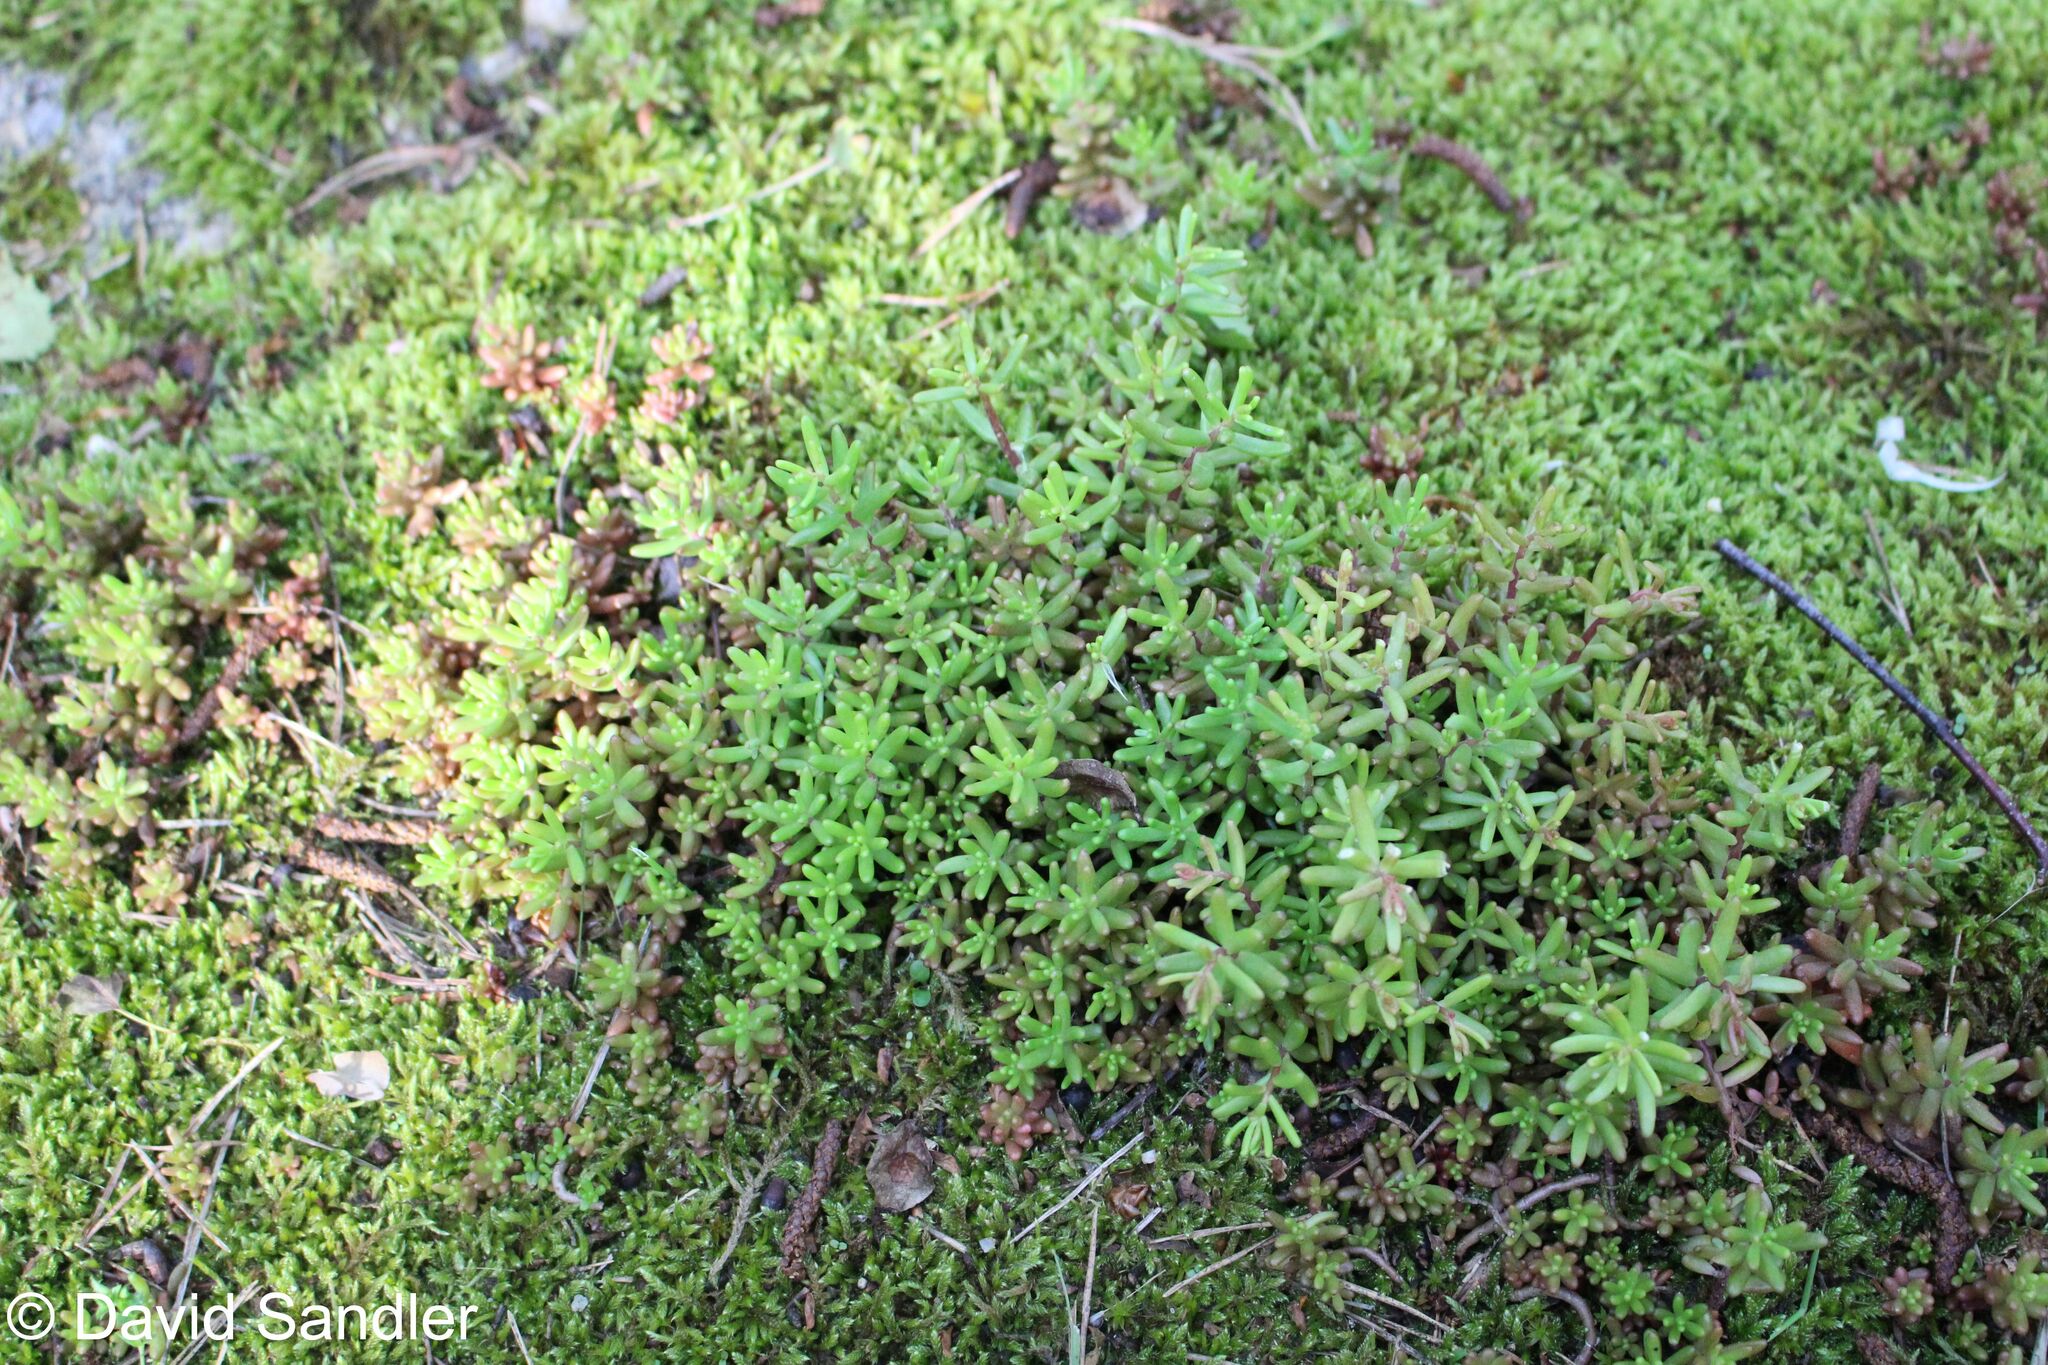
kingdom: Plantae
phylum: Tracheophyta
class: Magnoliopsida
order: Saxifragales
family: Crassulaceae
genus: Sedum
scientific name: Sedum album
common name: White stonecrop
